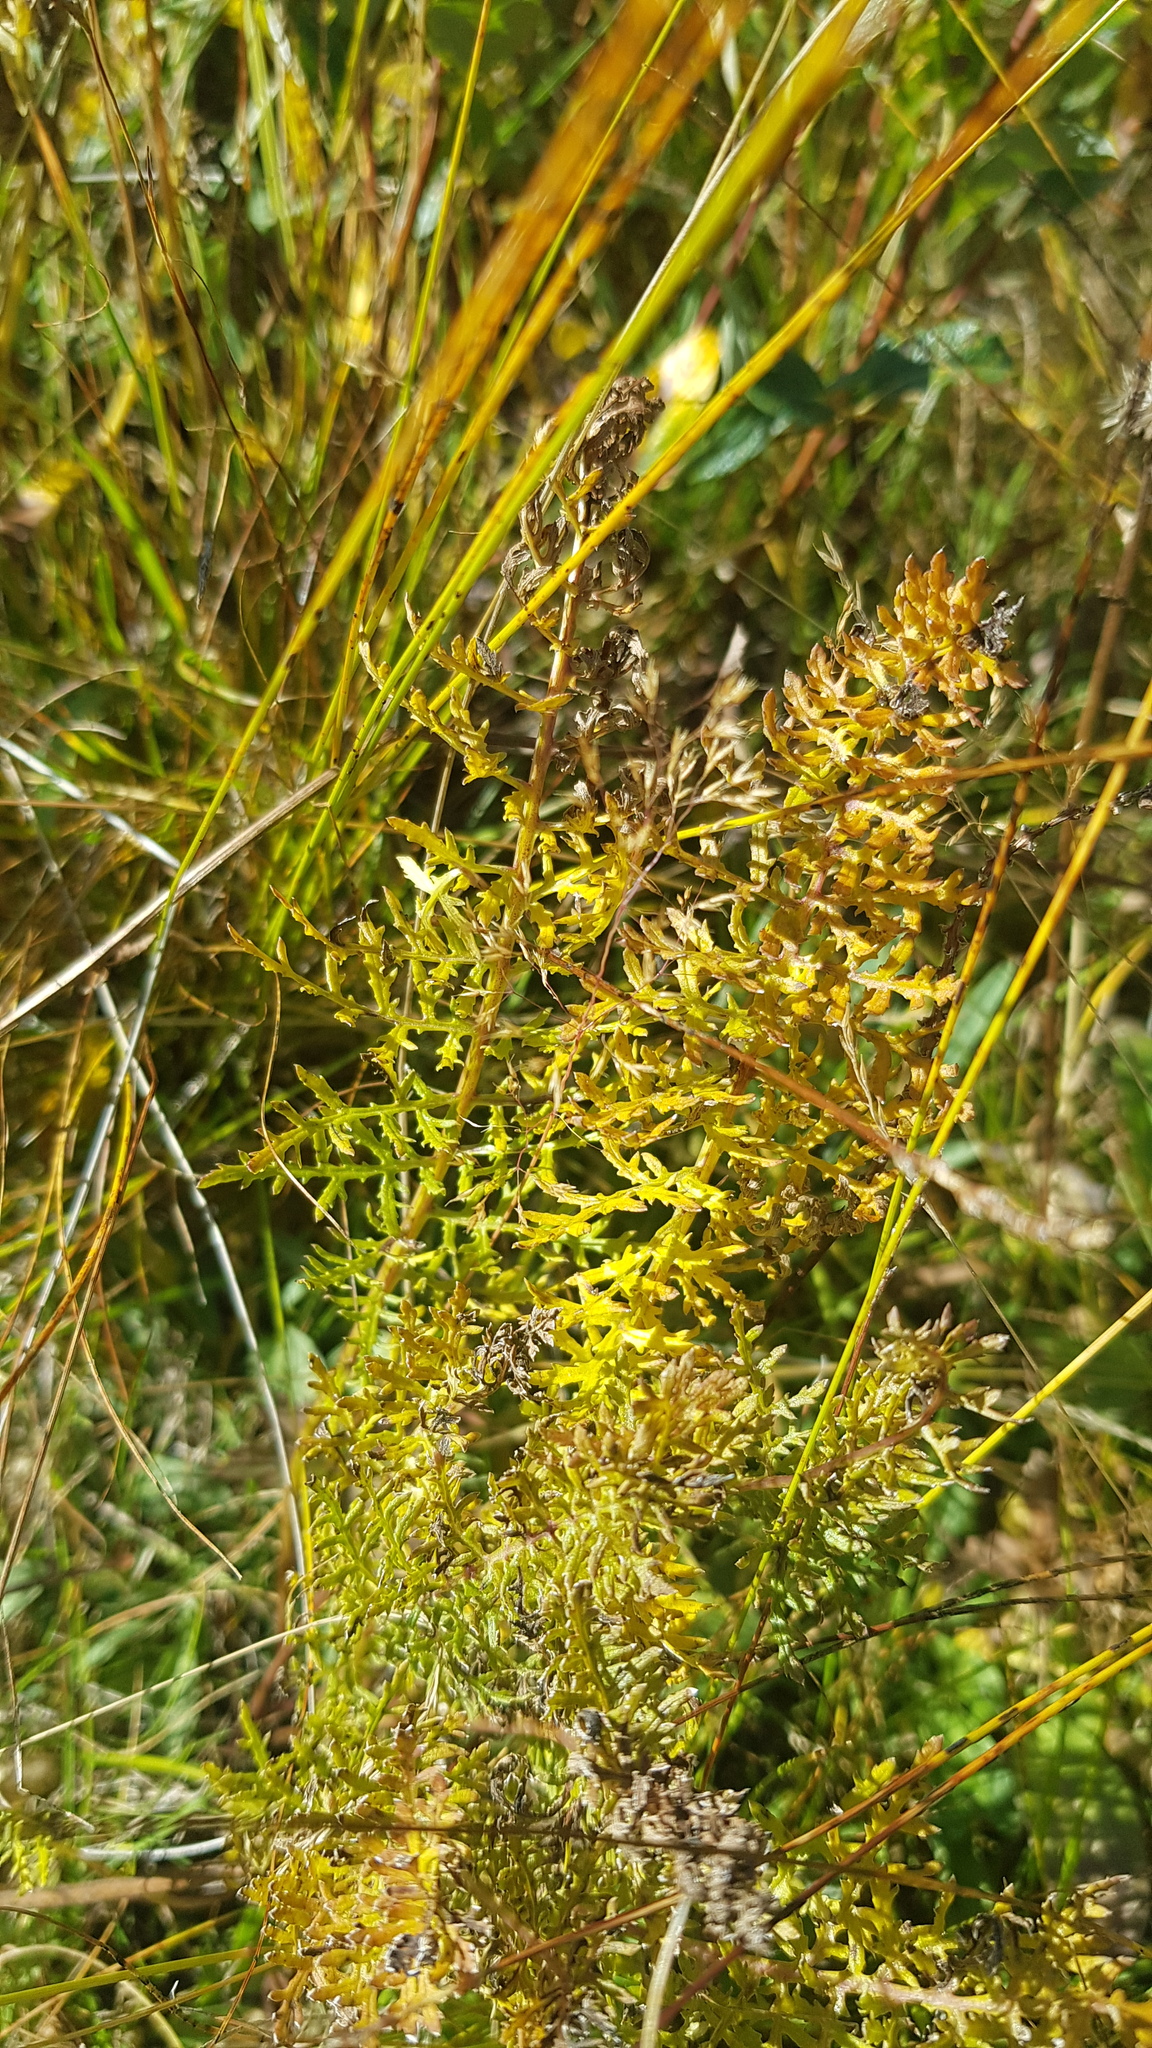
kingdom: Plantae
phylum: Tracheophyta
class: Magnoliopsida
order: Lamiales
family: Orobanchaceae
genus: Pedicularis
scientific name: Pedicularis rubens
